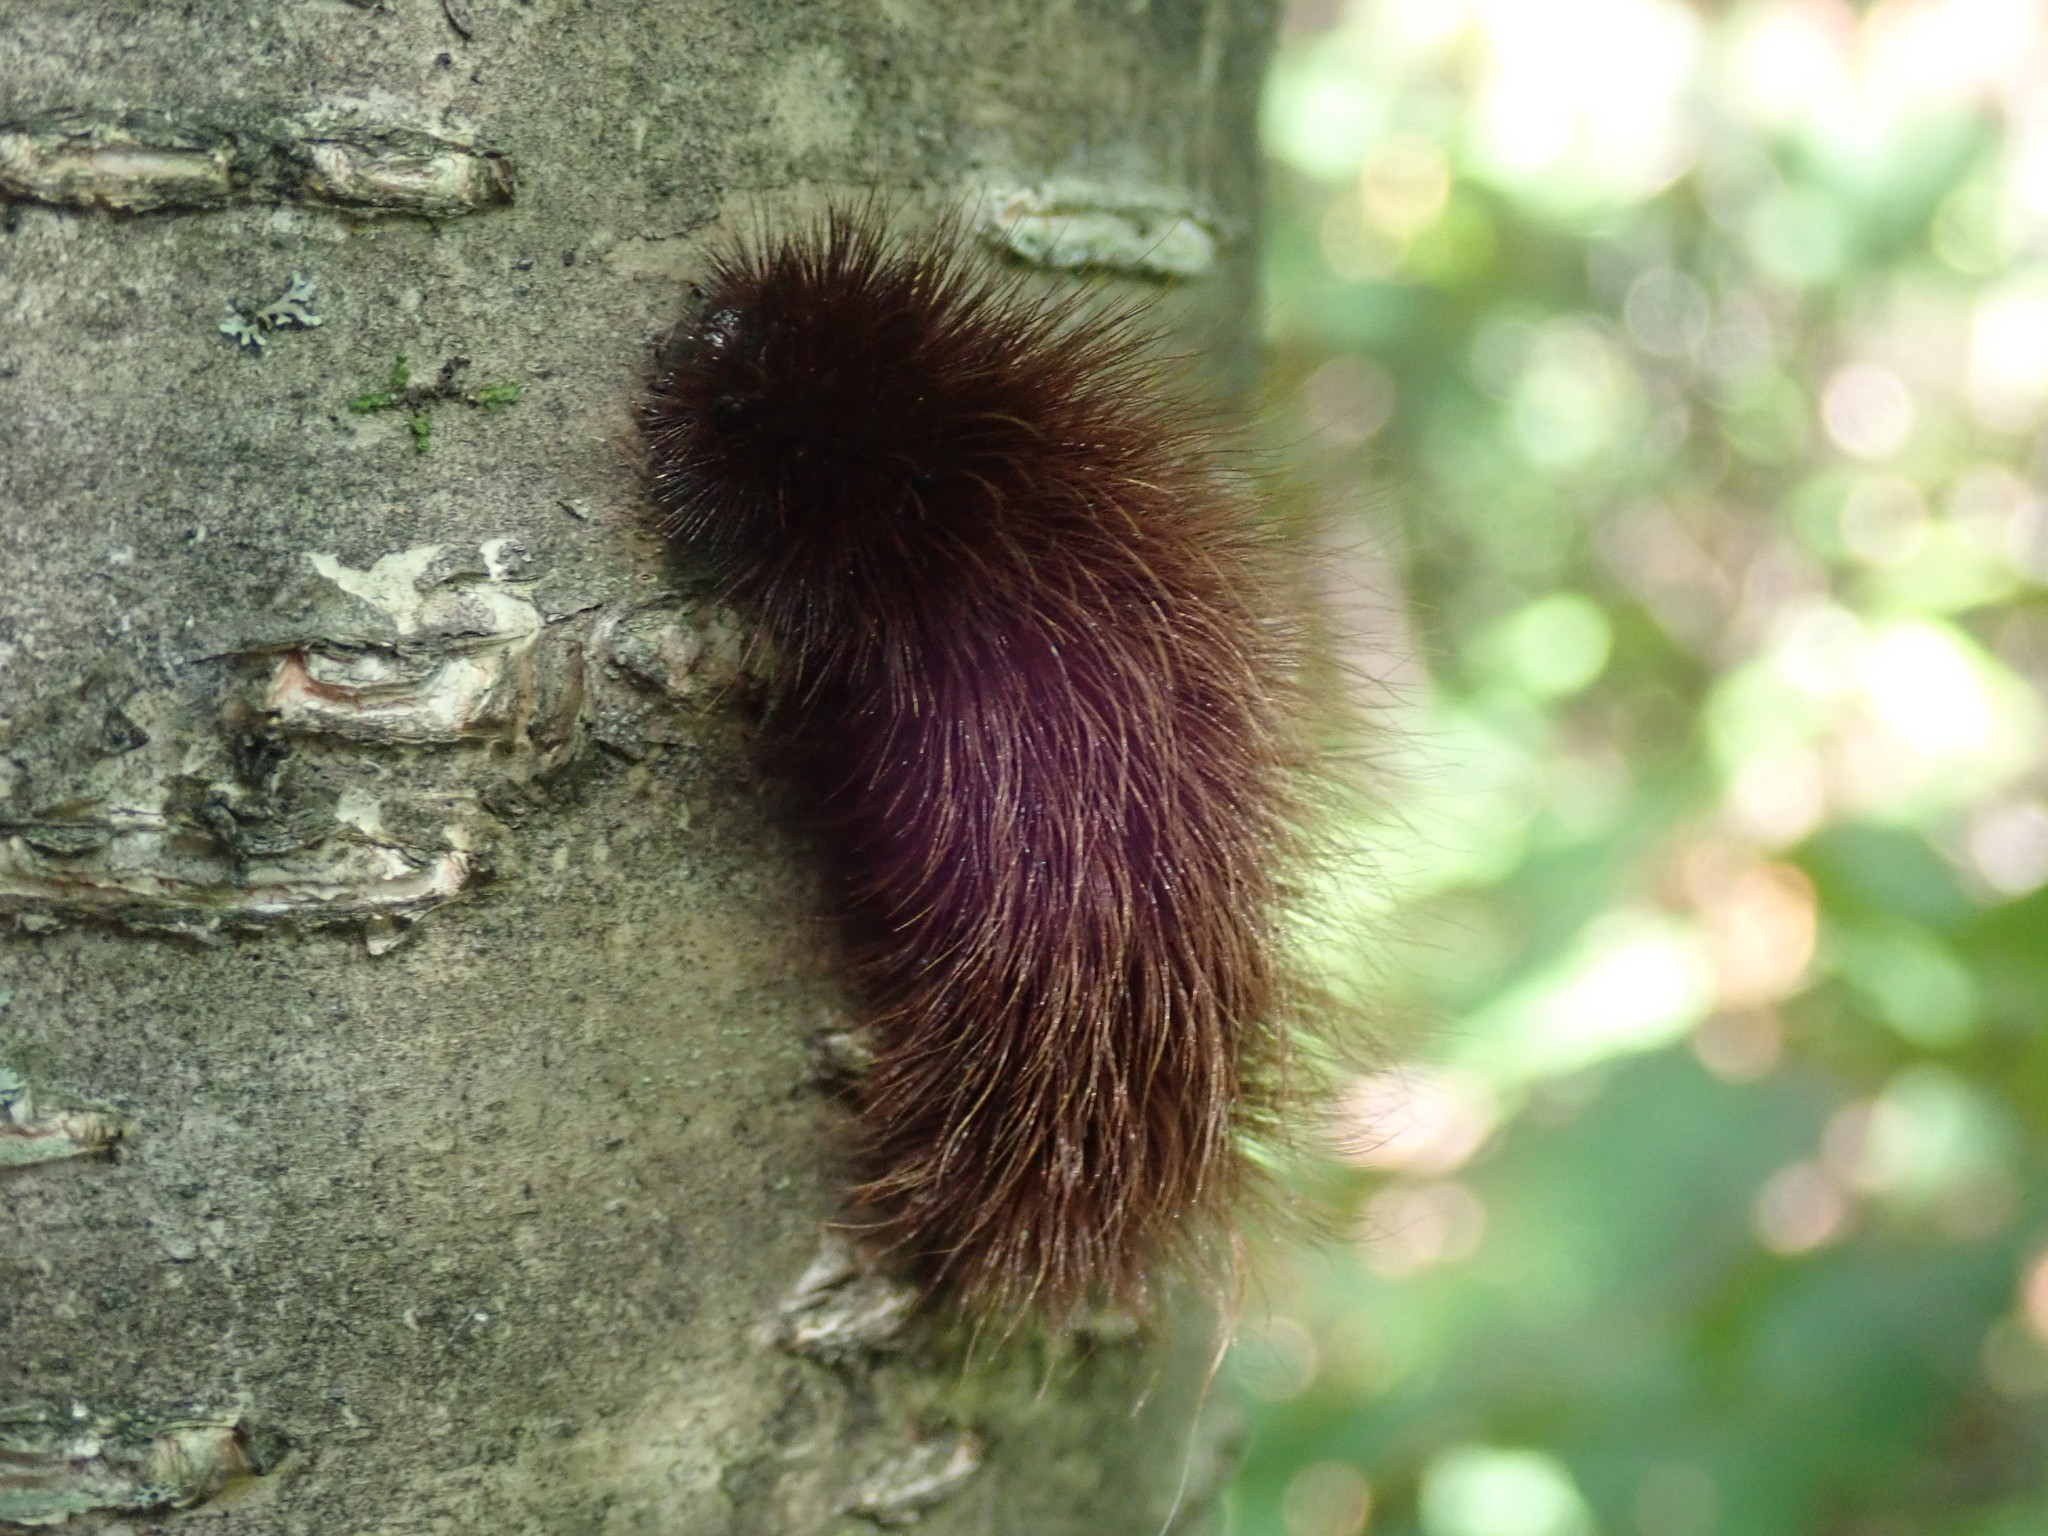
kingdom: Animalia
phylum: Arthropoda
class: Insecta
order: Lepidoptera
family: Erebidae
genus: Arctia
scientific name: Arctia parthenos
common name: St. lawrence tiger moth
